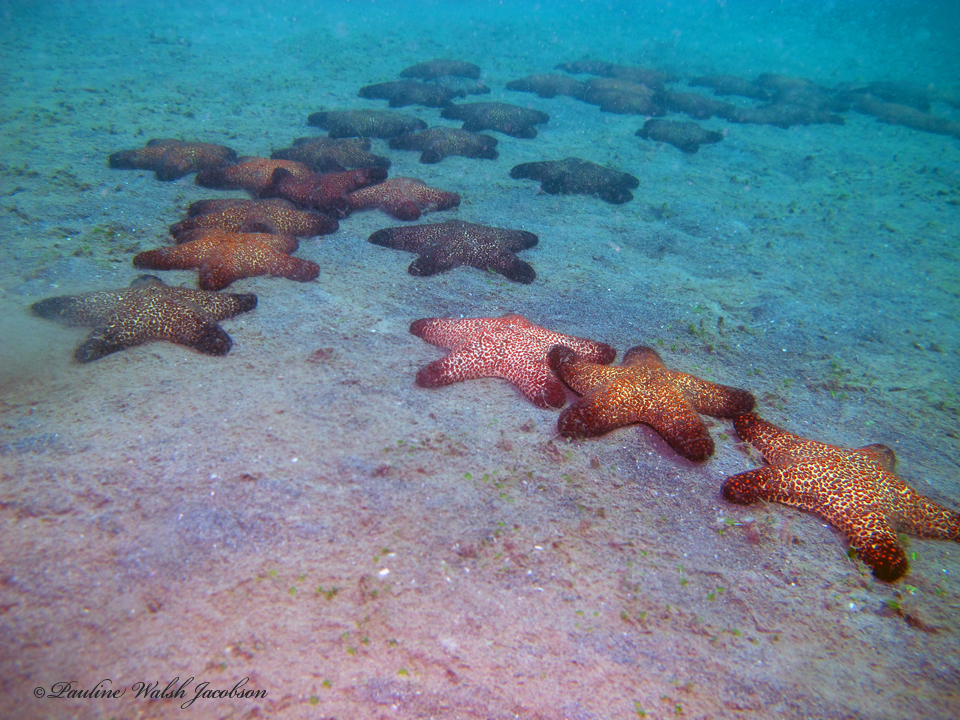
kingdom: Animalia
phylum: Echinodermata
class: Asteroidea
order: Valvatida
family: Oreasteridae
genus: Pentaster
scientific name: Pentaster obtusatus
